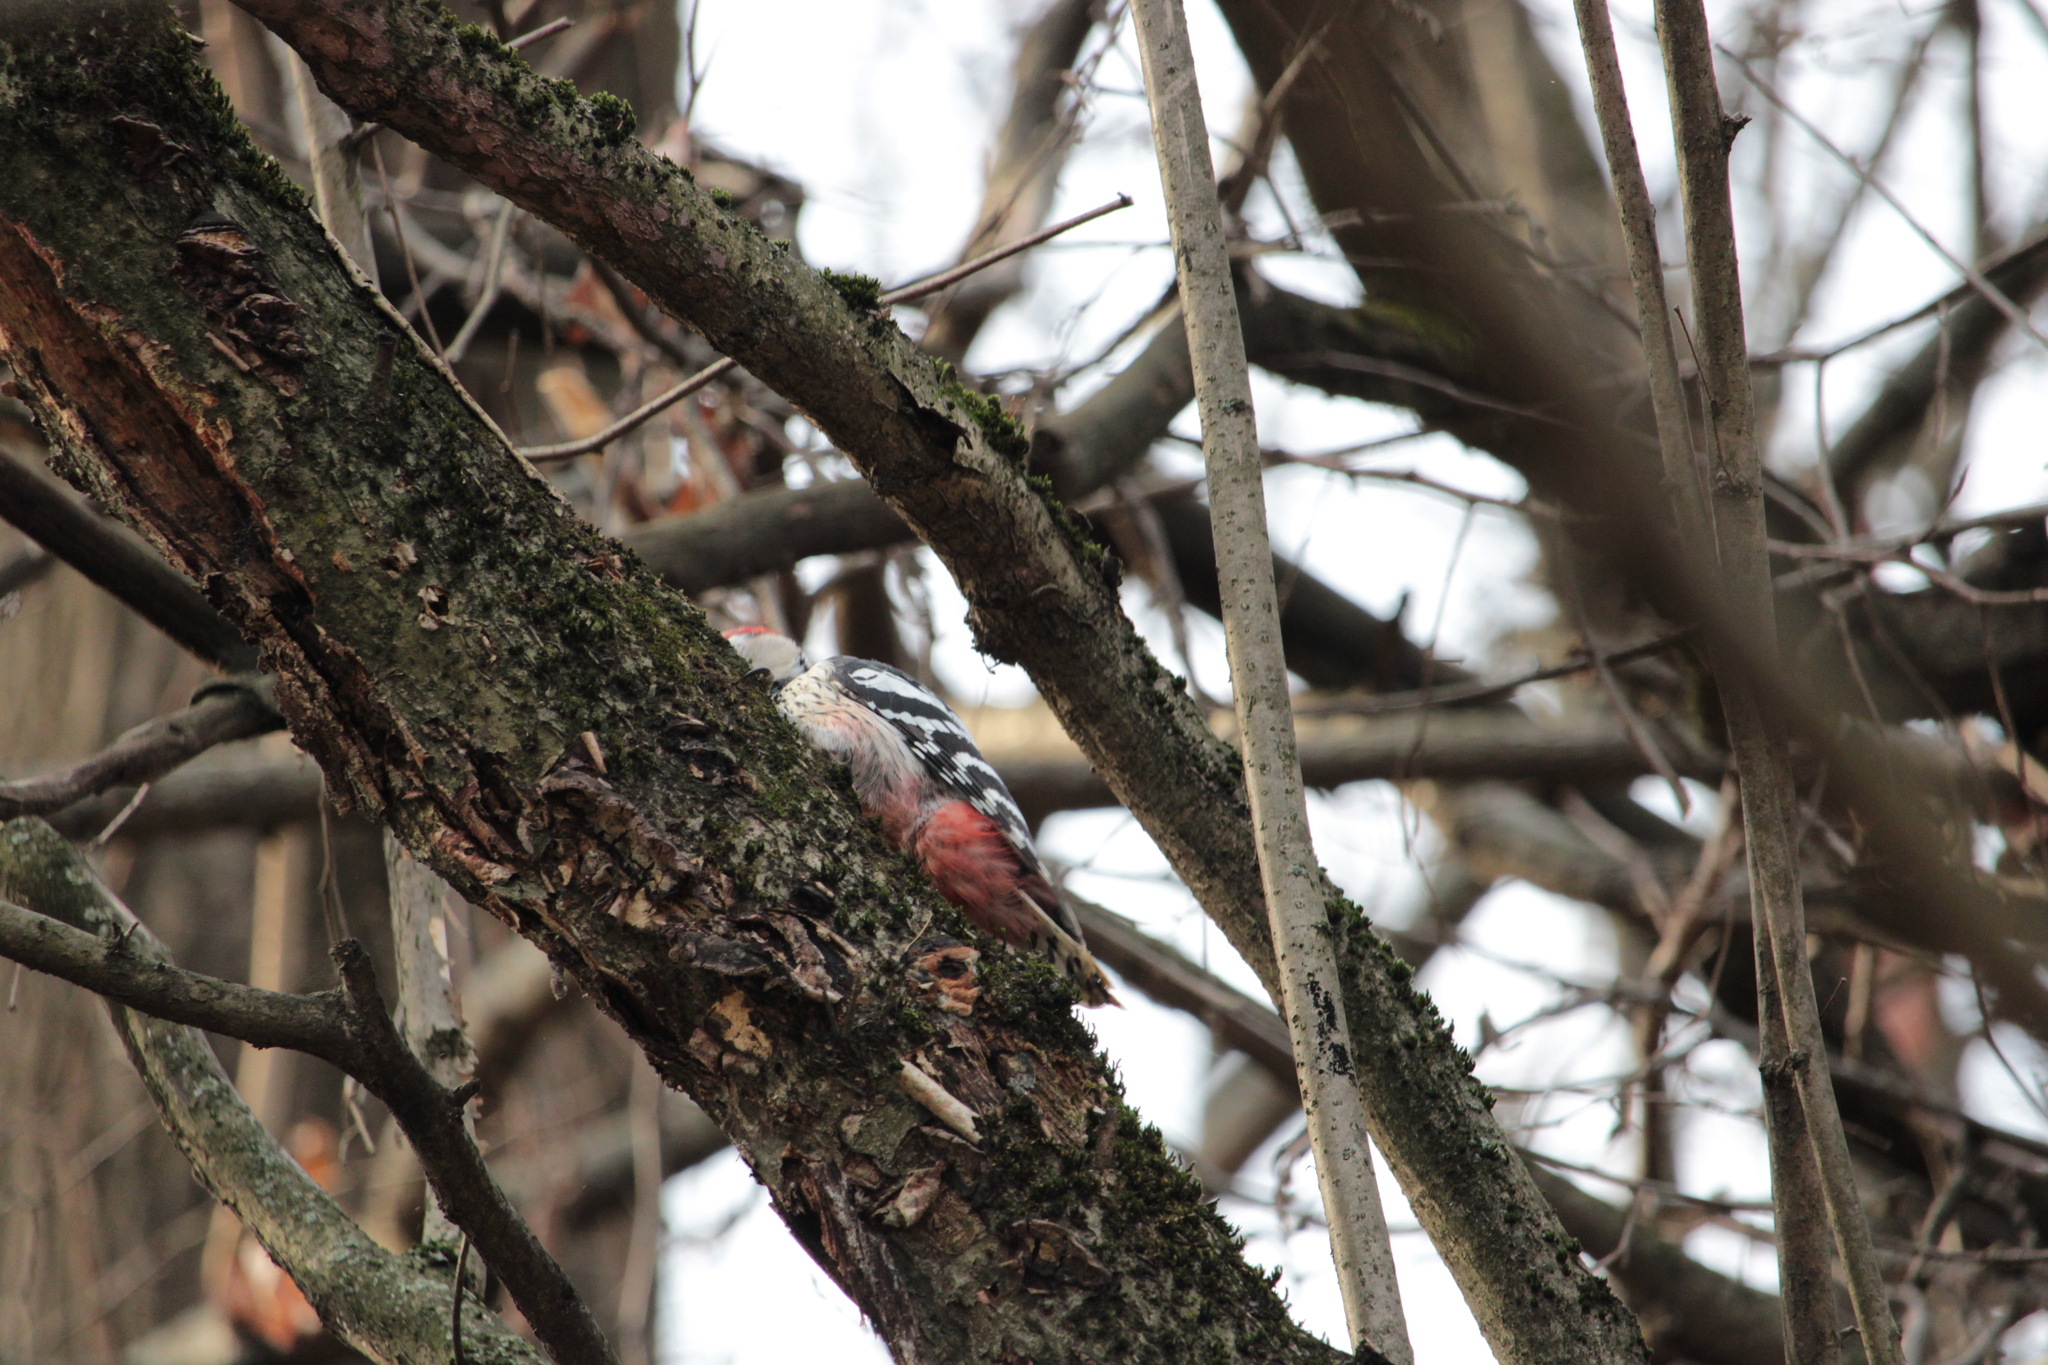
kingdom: Animalia
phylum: Chordata
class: Aves
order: Piciformes
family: Picidae
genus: Dendrocopos
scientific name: Dendrocopos leucotos
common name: White-backed woodpecker
